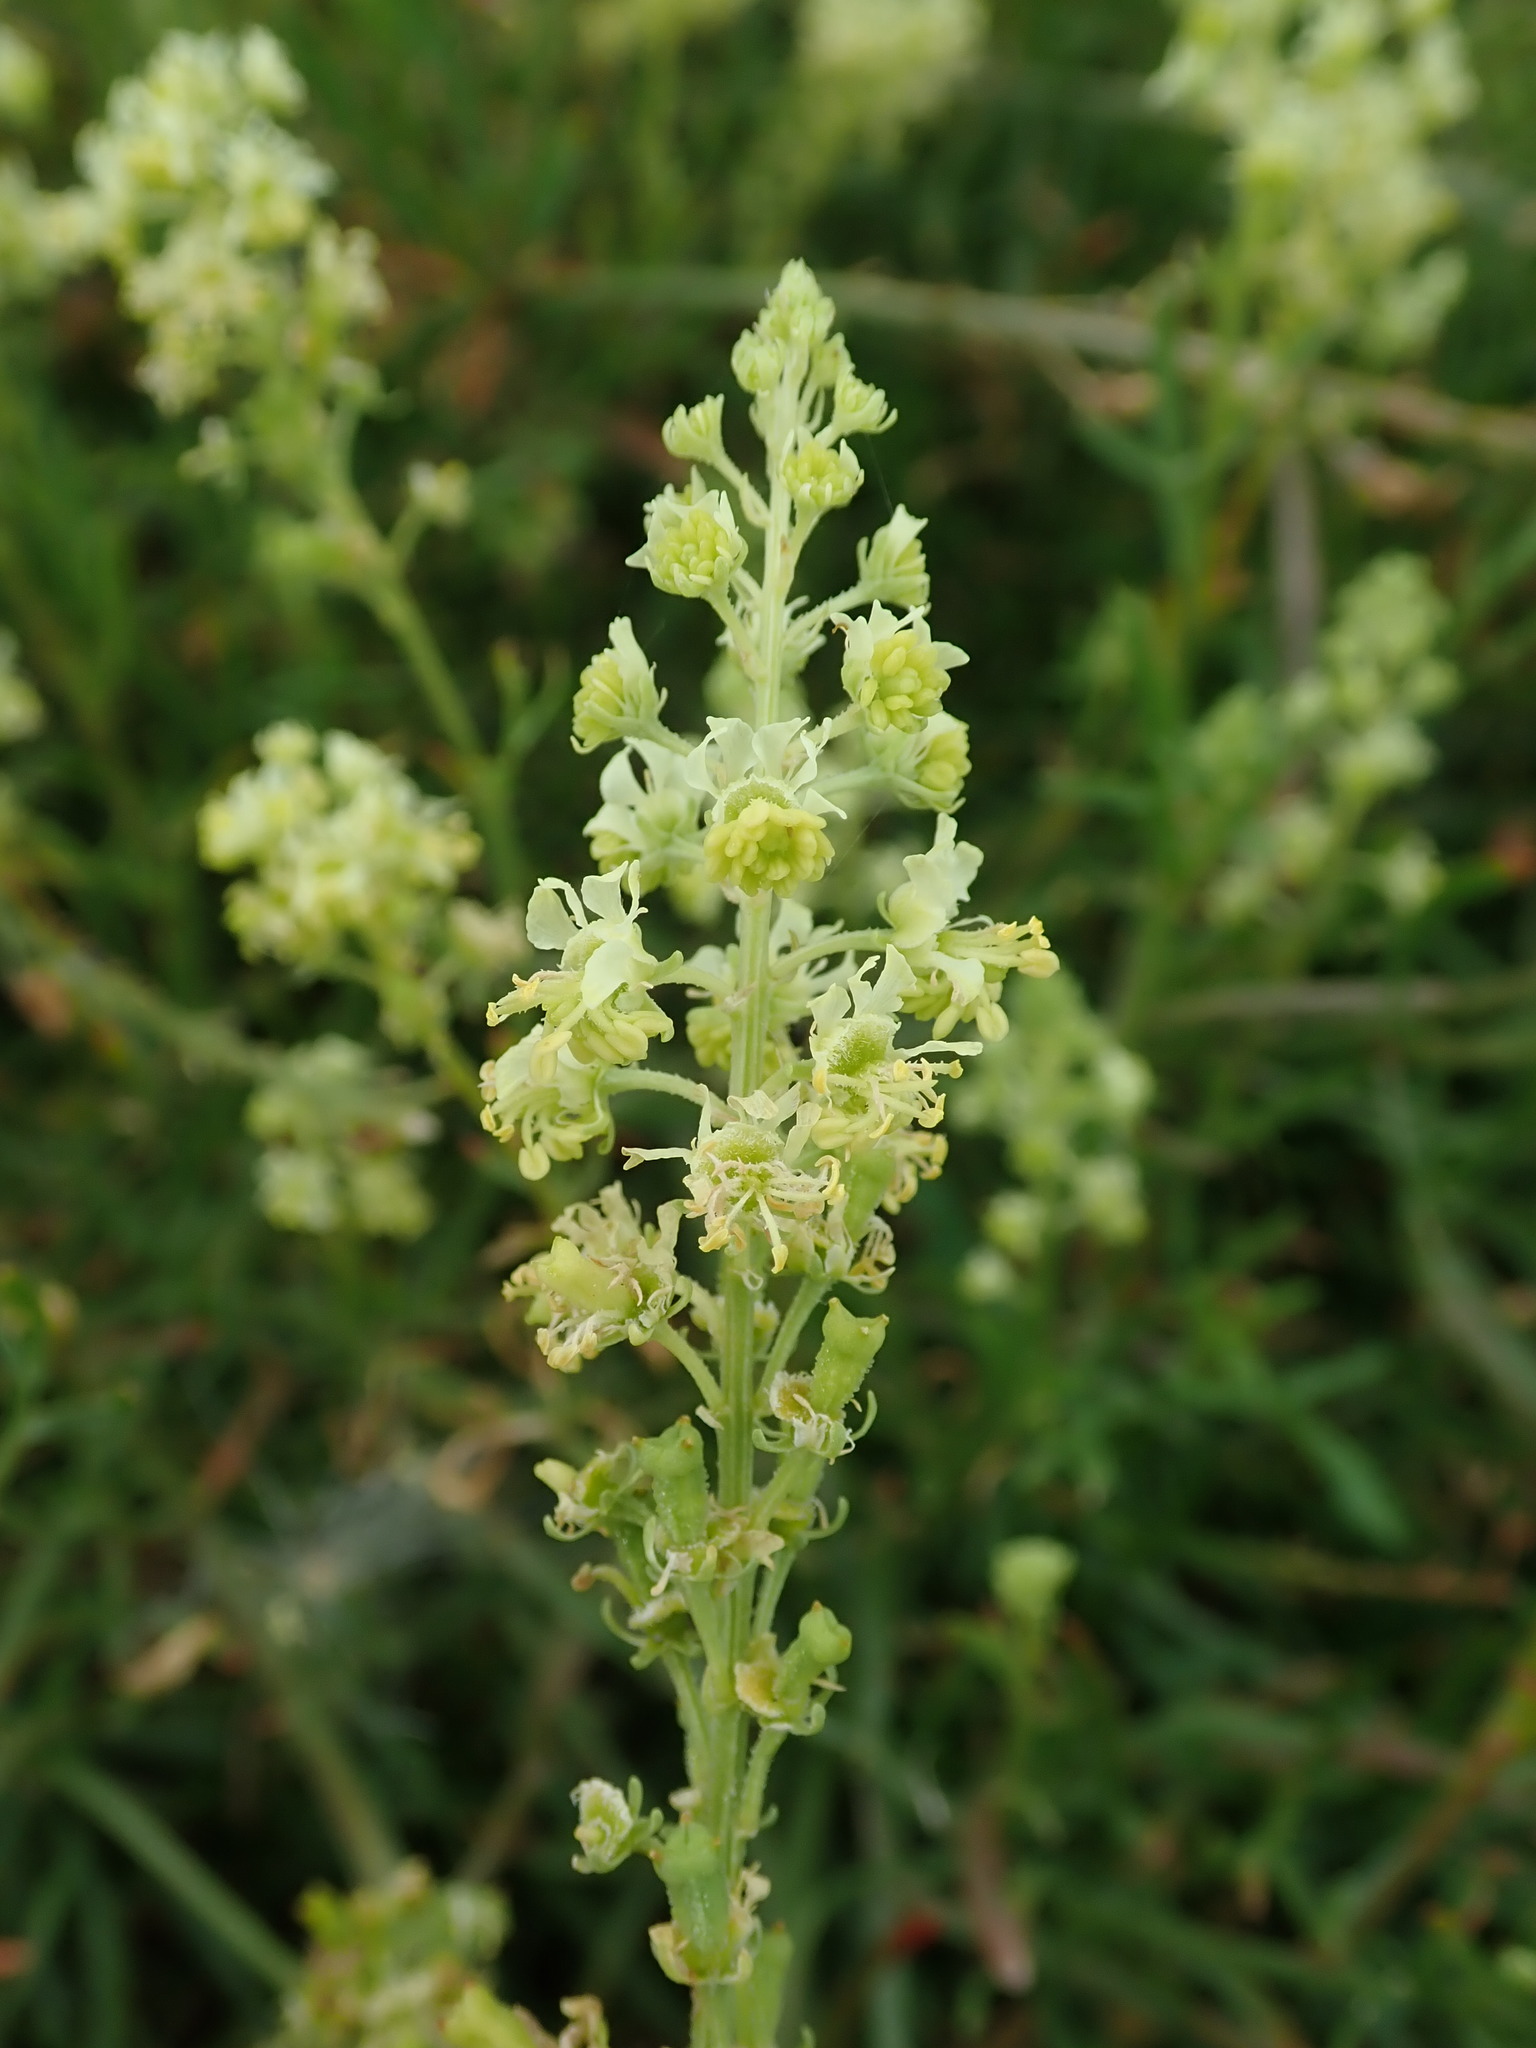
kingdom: Plantae
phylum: Tracheophyta
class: Magnoliopsida
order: Brassicales
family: Resedaceae
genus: Reseda
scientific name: Reseda lutea
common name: Wild mignonette
